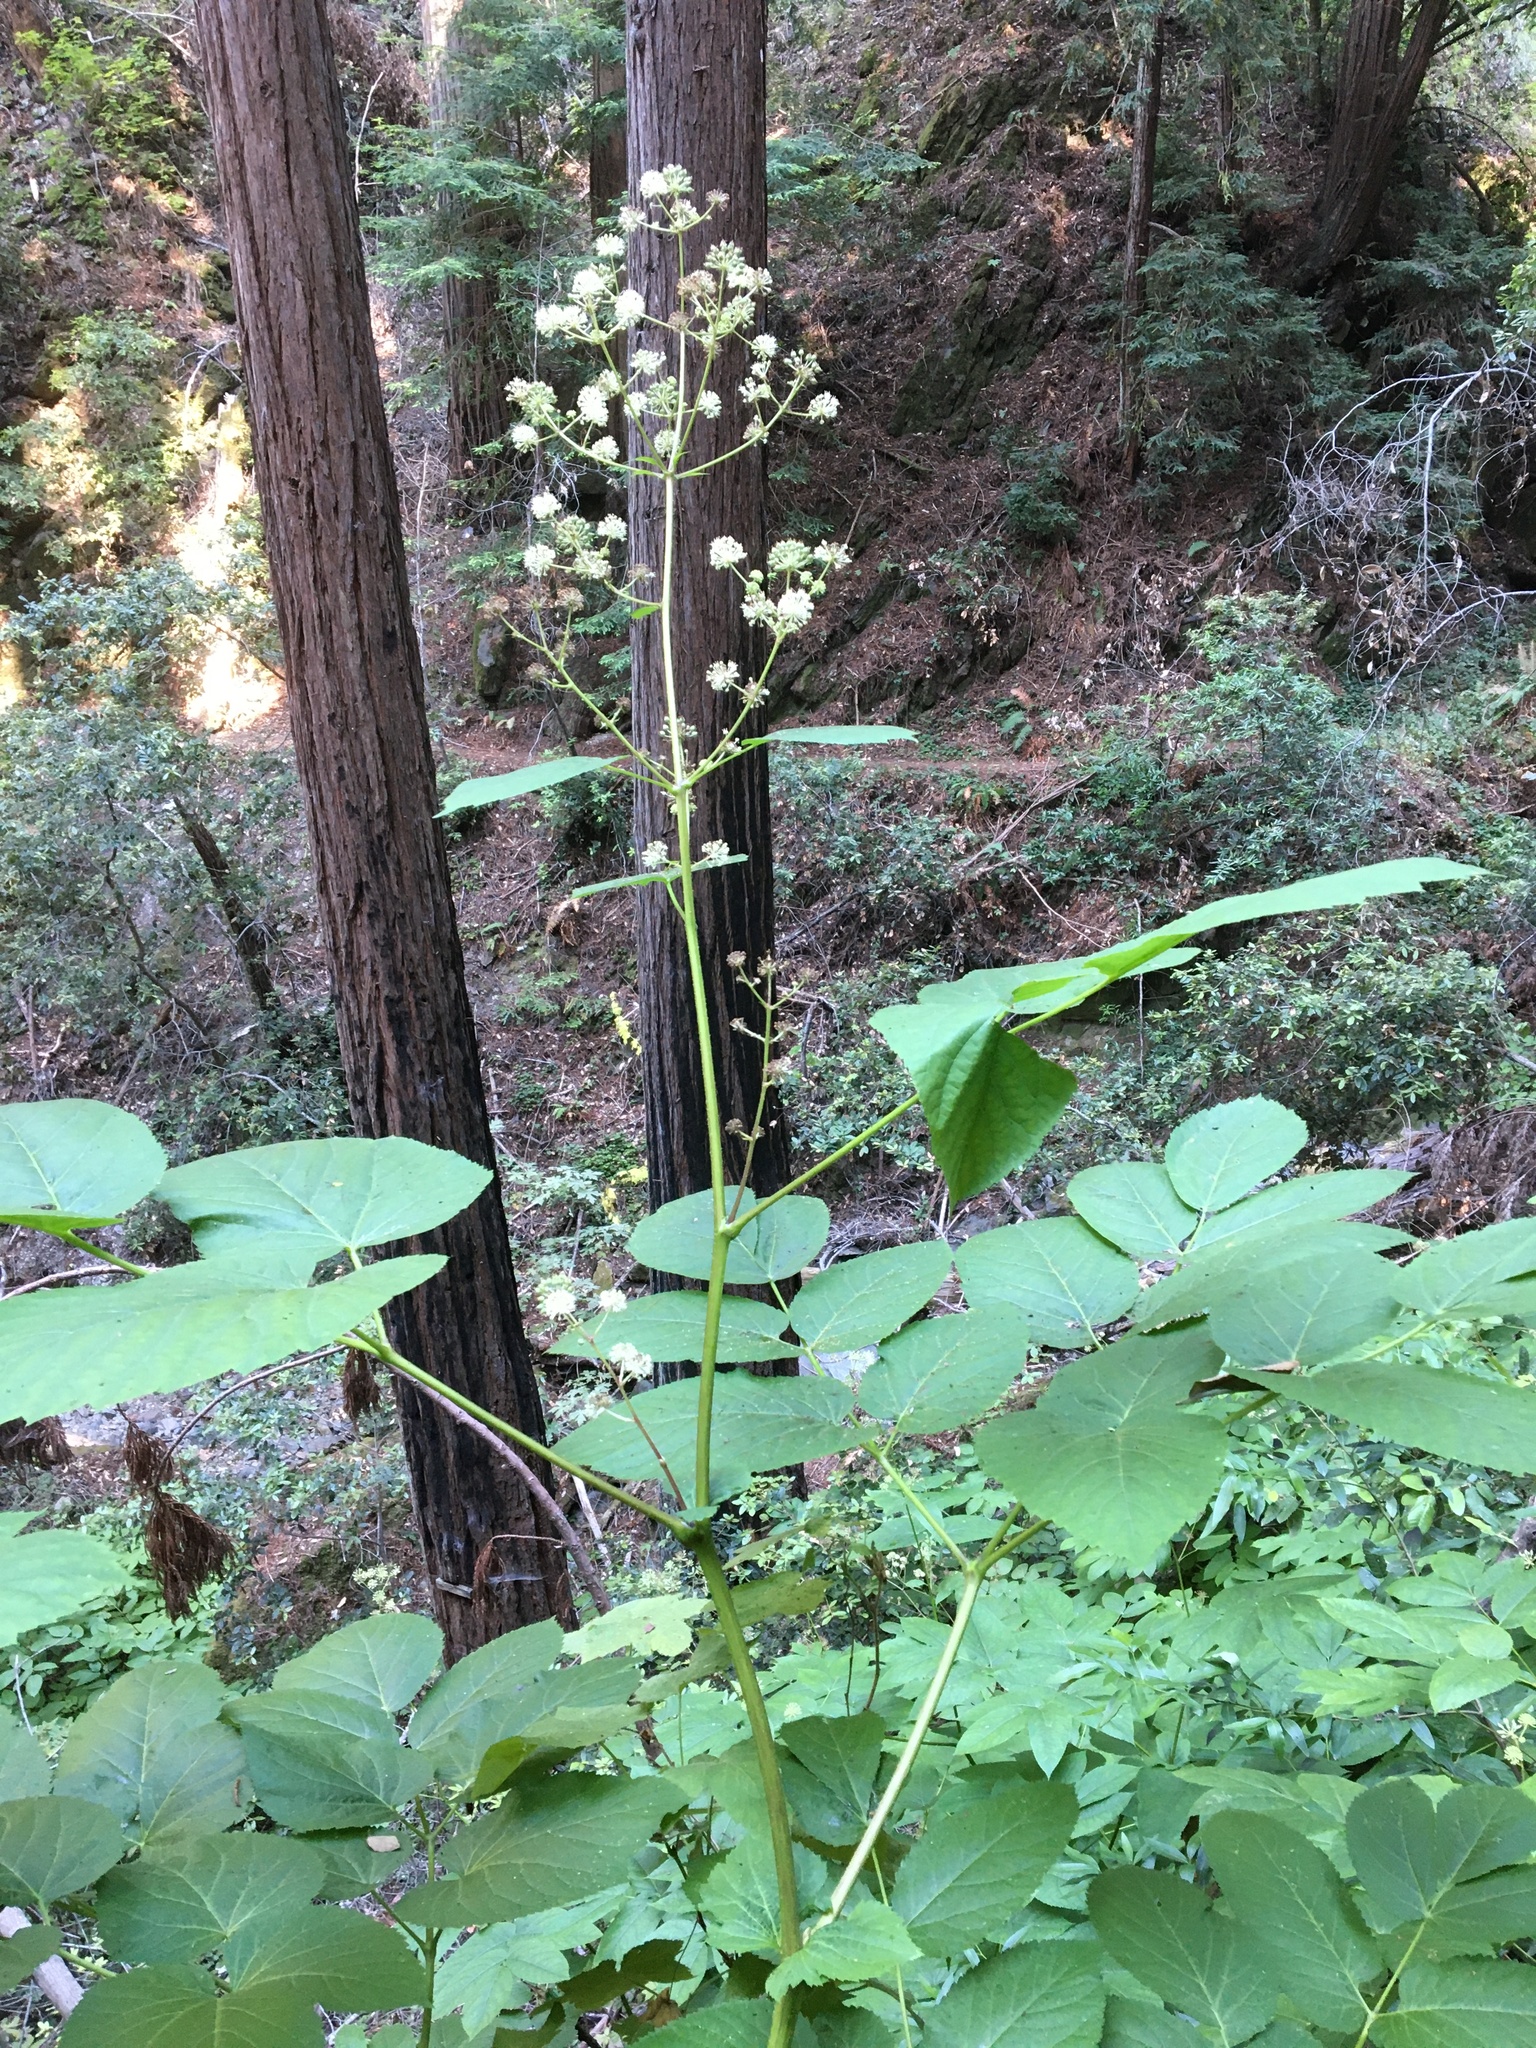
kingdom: Plantae
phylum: Tracheophyta
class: Magnoliopsida
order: Apiales
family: Araliaceae
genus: Aralia
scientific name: Aralia californica
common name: California-ginseng
